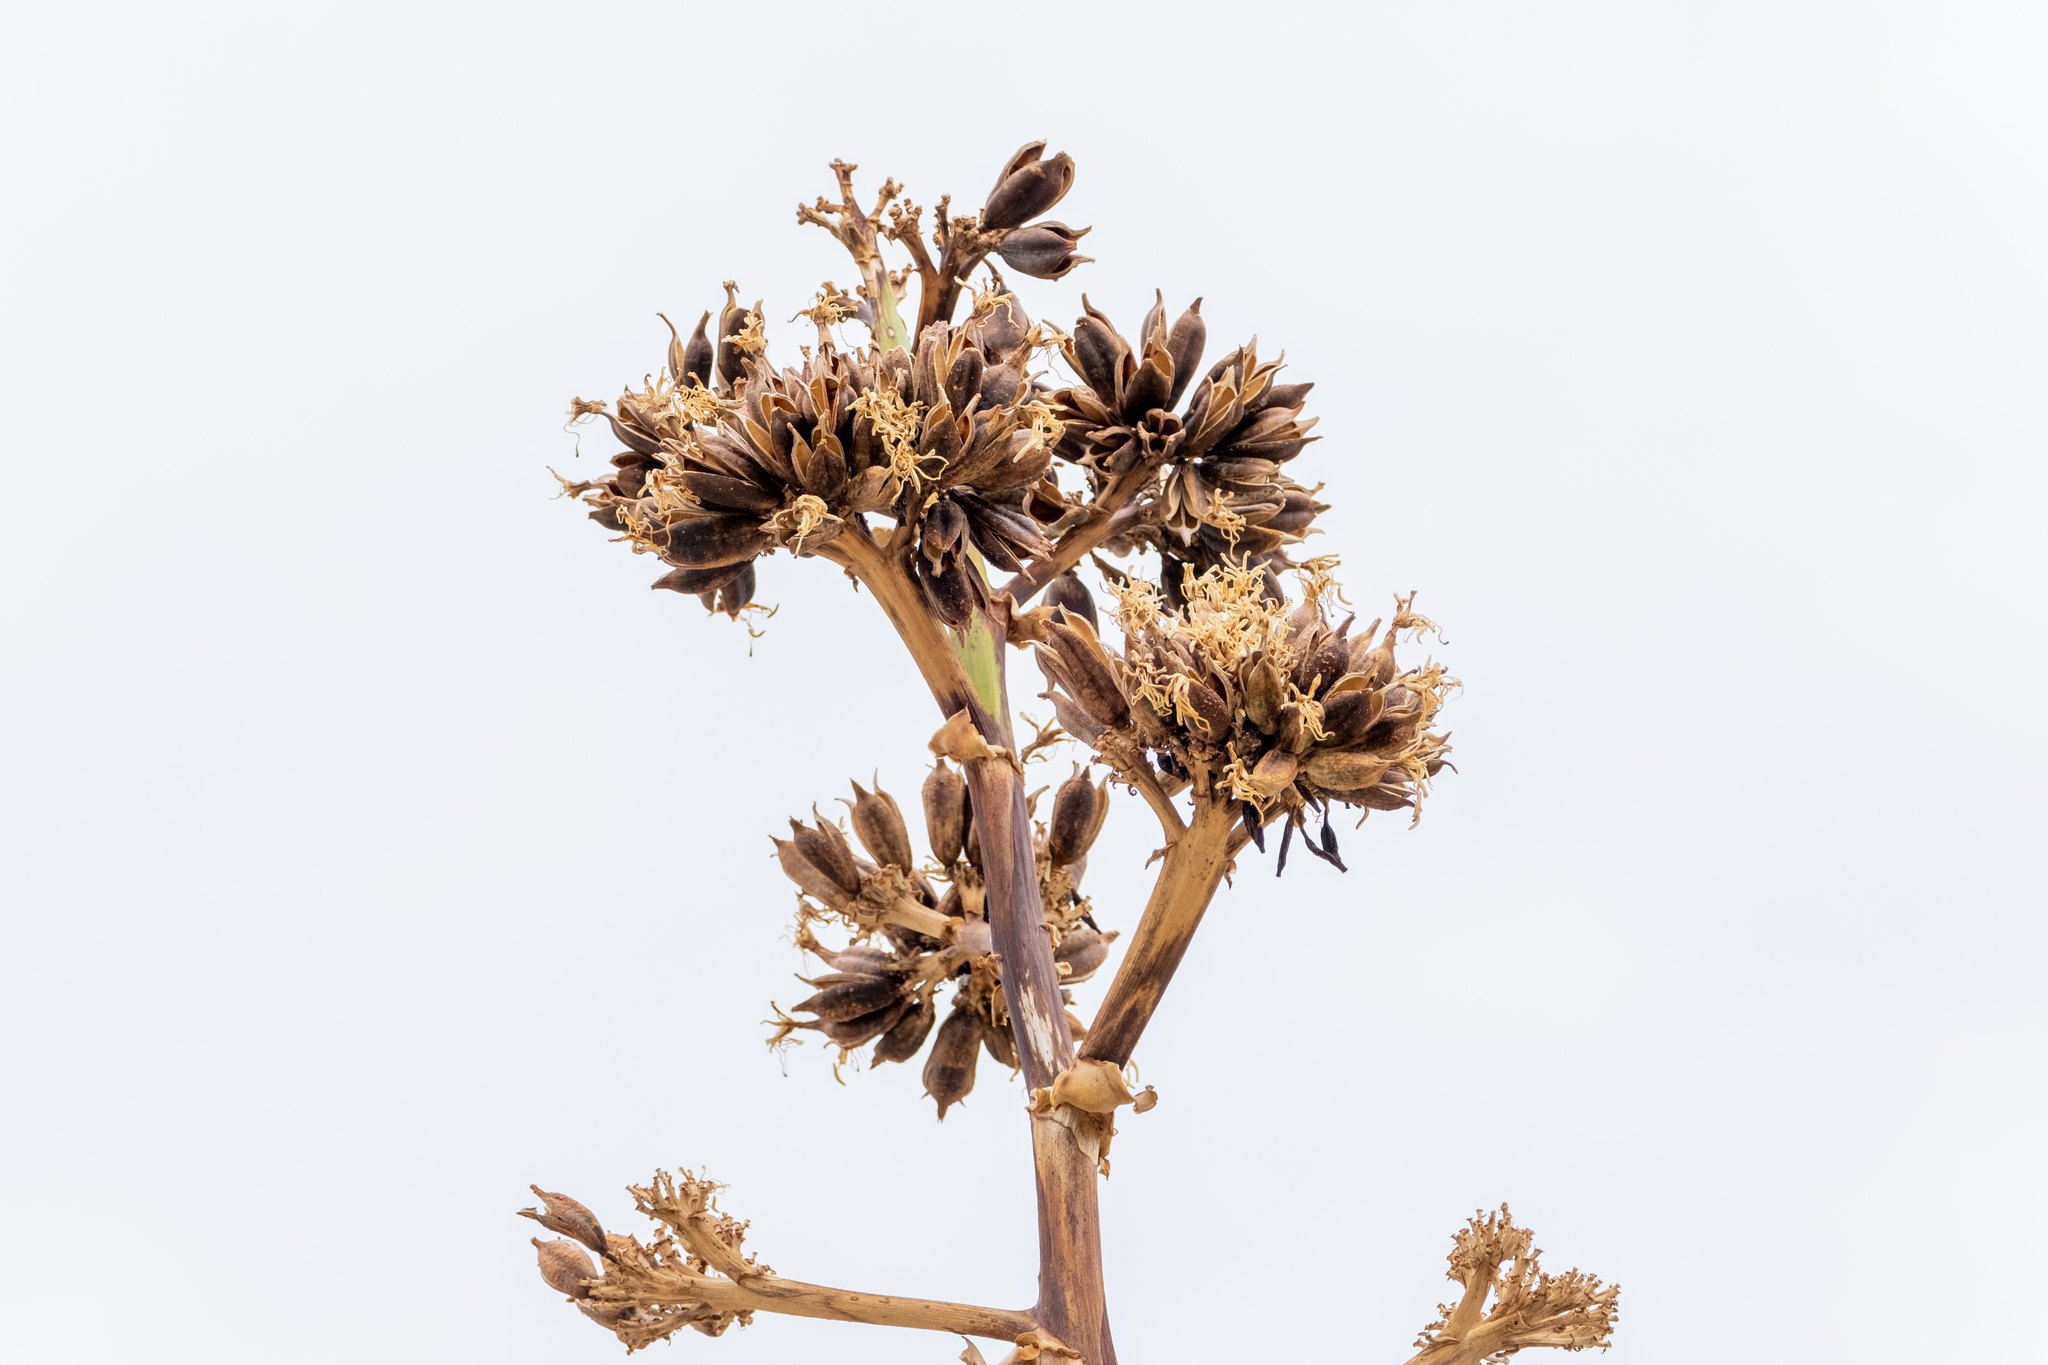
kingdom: Plantae
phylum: Tracheophyta
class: Liliopsida
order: Asparagales
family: Asparagaceae
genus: Agave
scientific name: Agave deserti
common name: Desert agave
